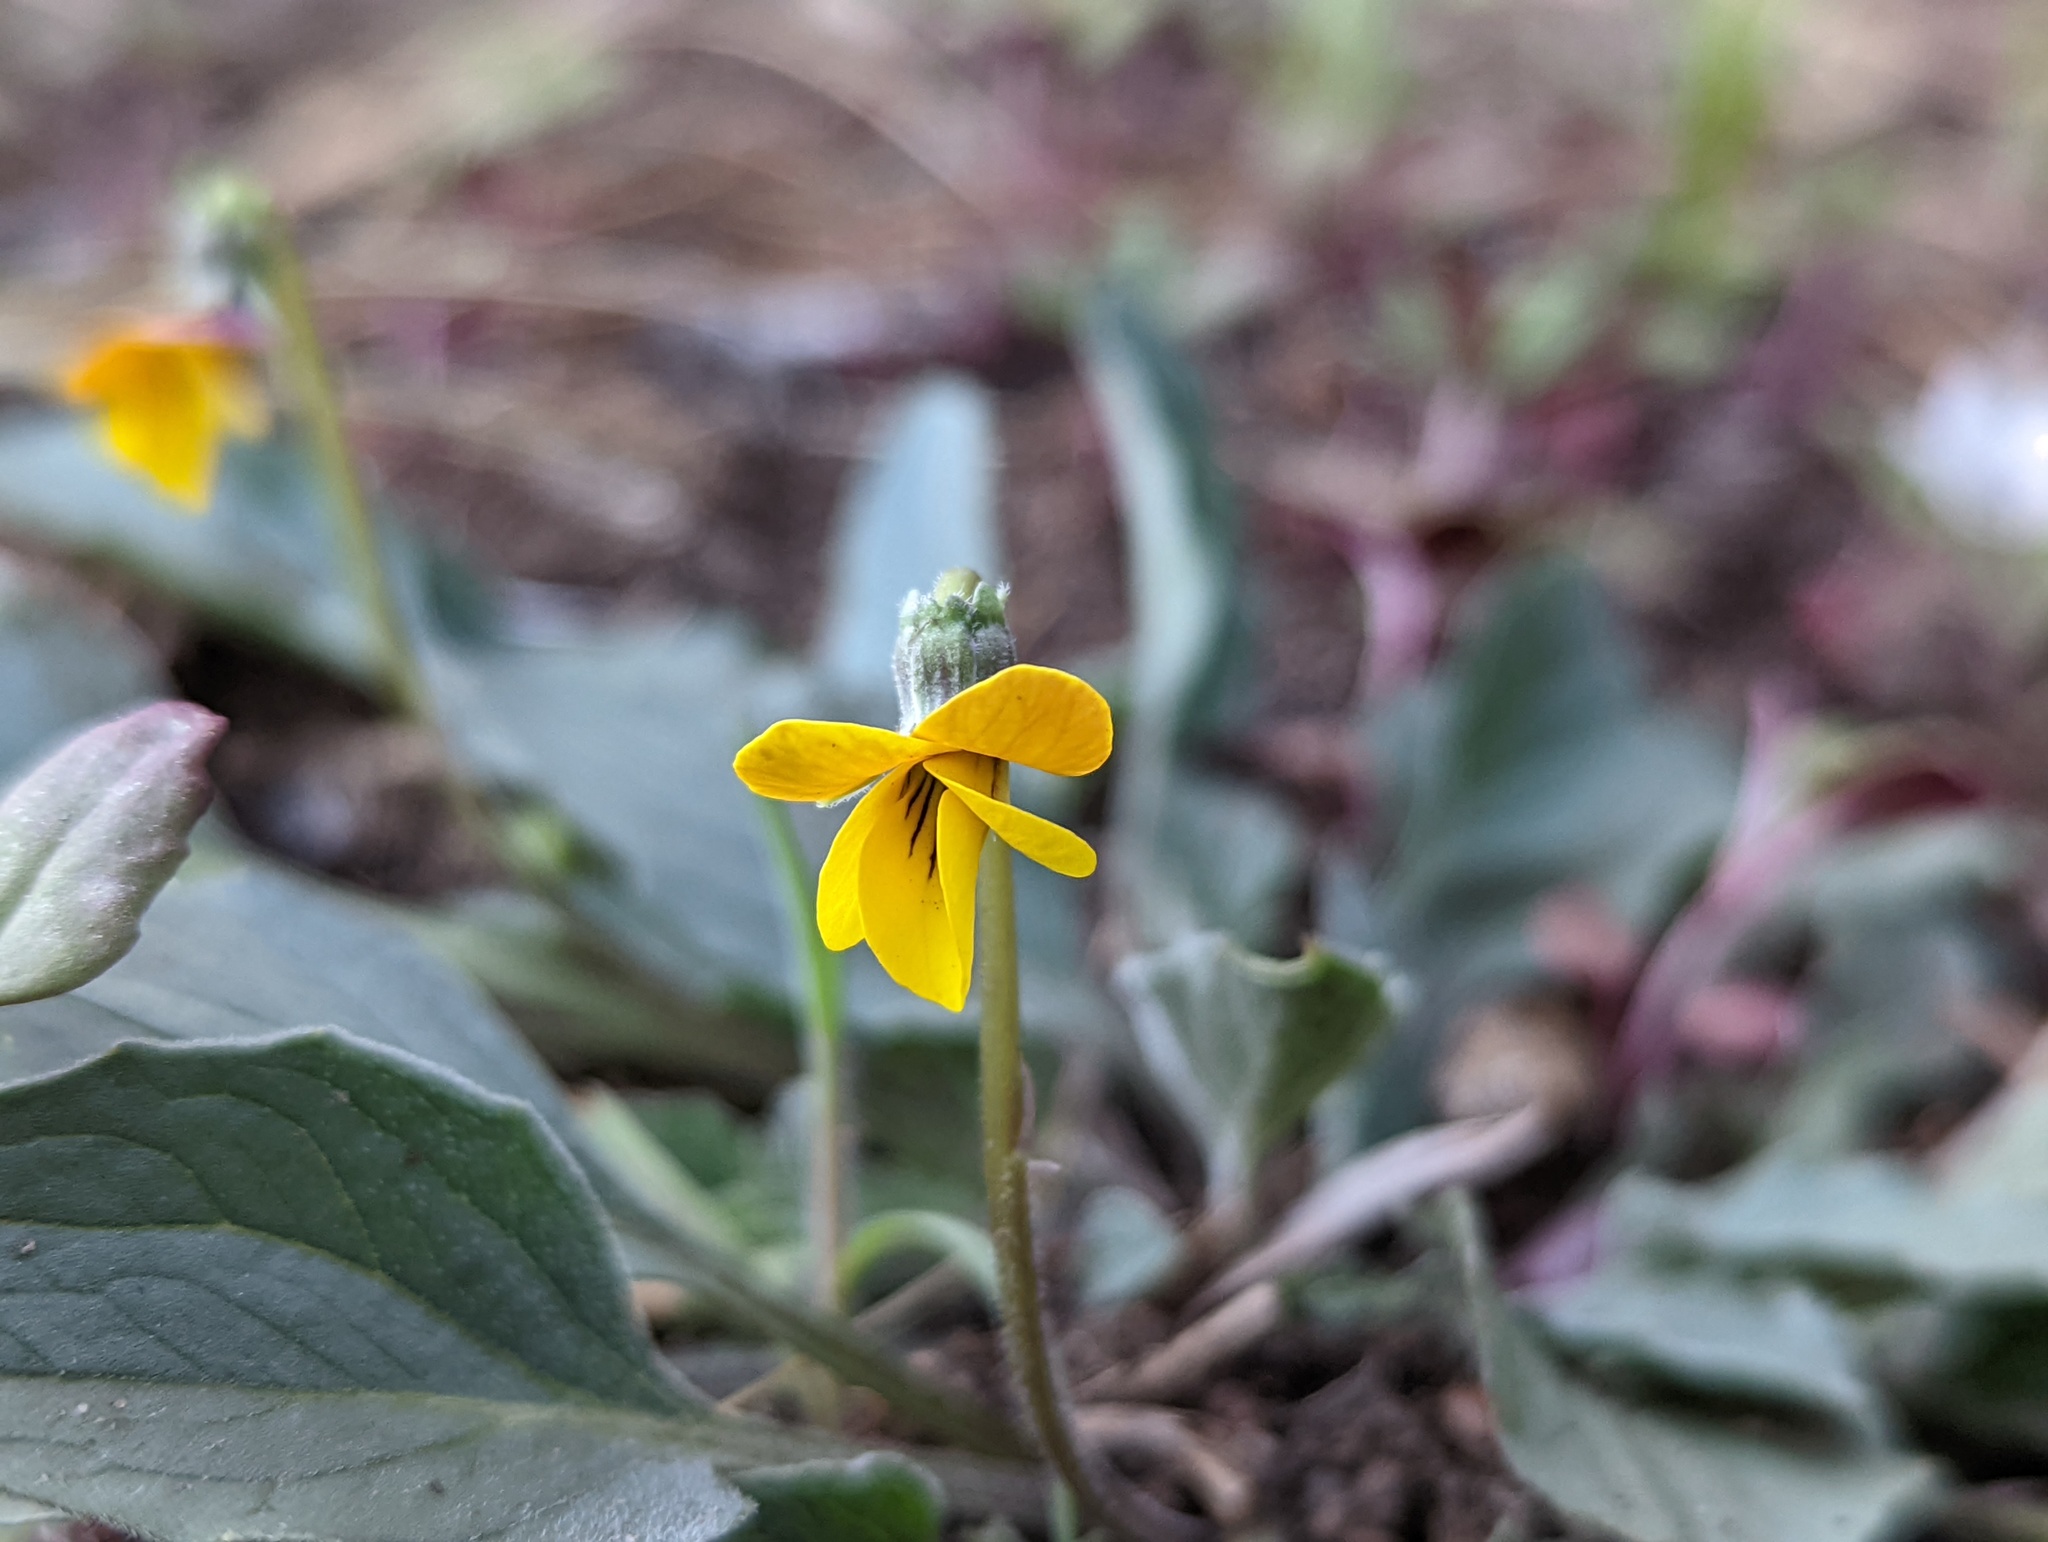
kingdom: Plantae
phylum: Tracheophyta
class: Magnoliopsida
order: Malpighiales
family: Violaceae
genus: Viola
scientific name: Viola purpurea
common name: Pine violet
